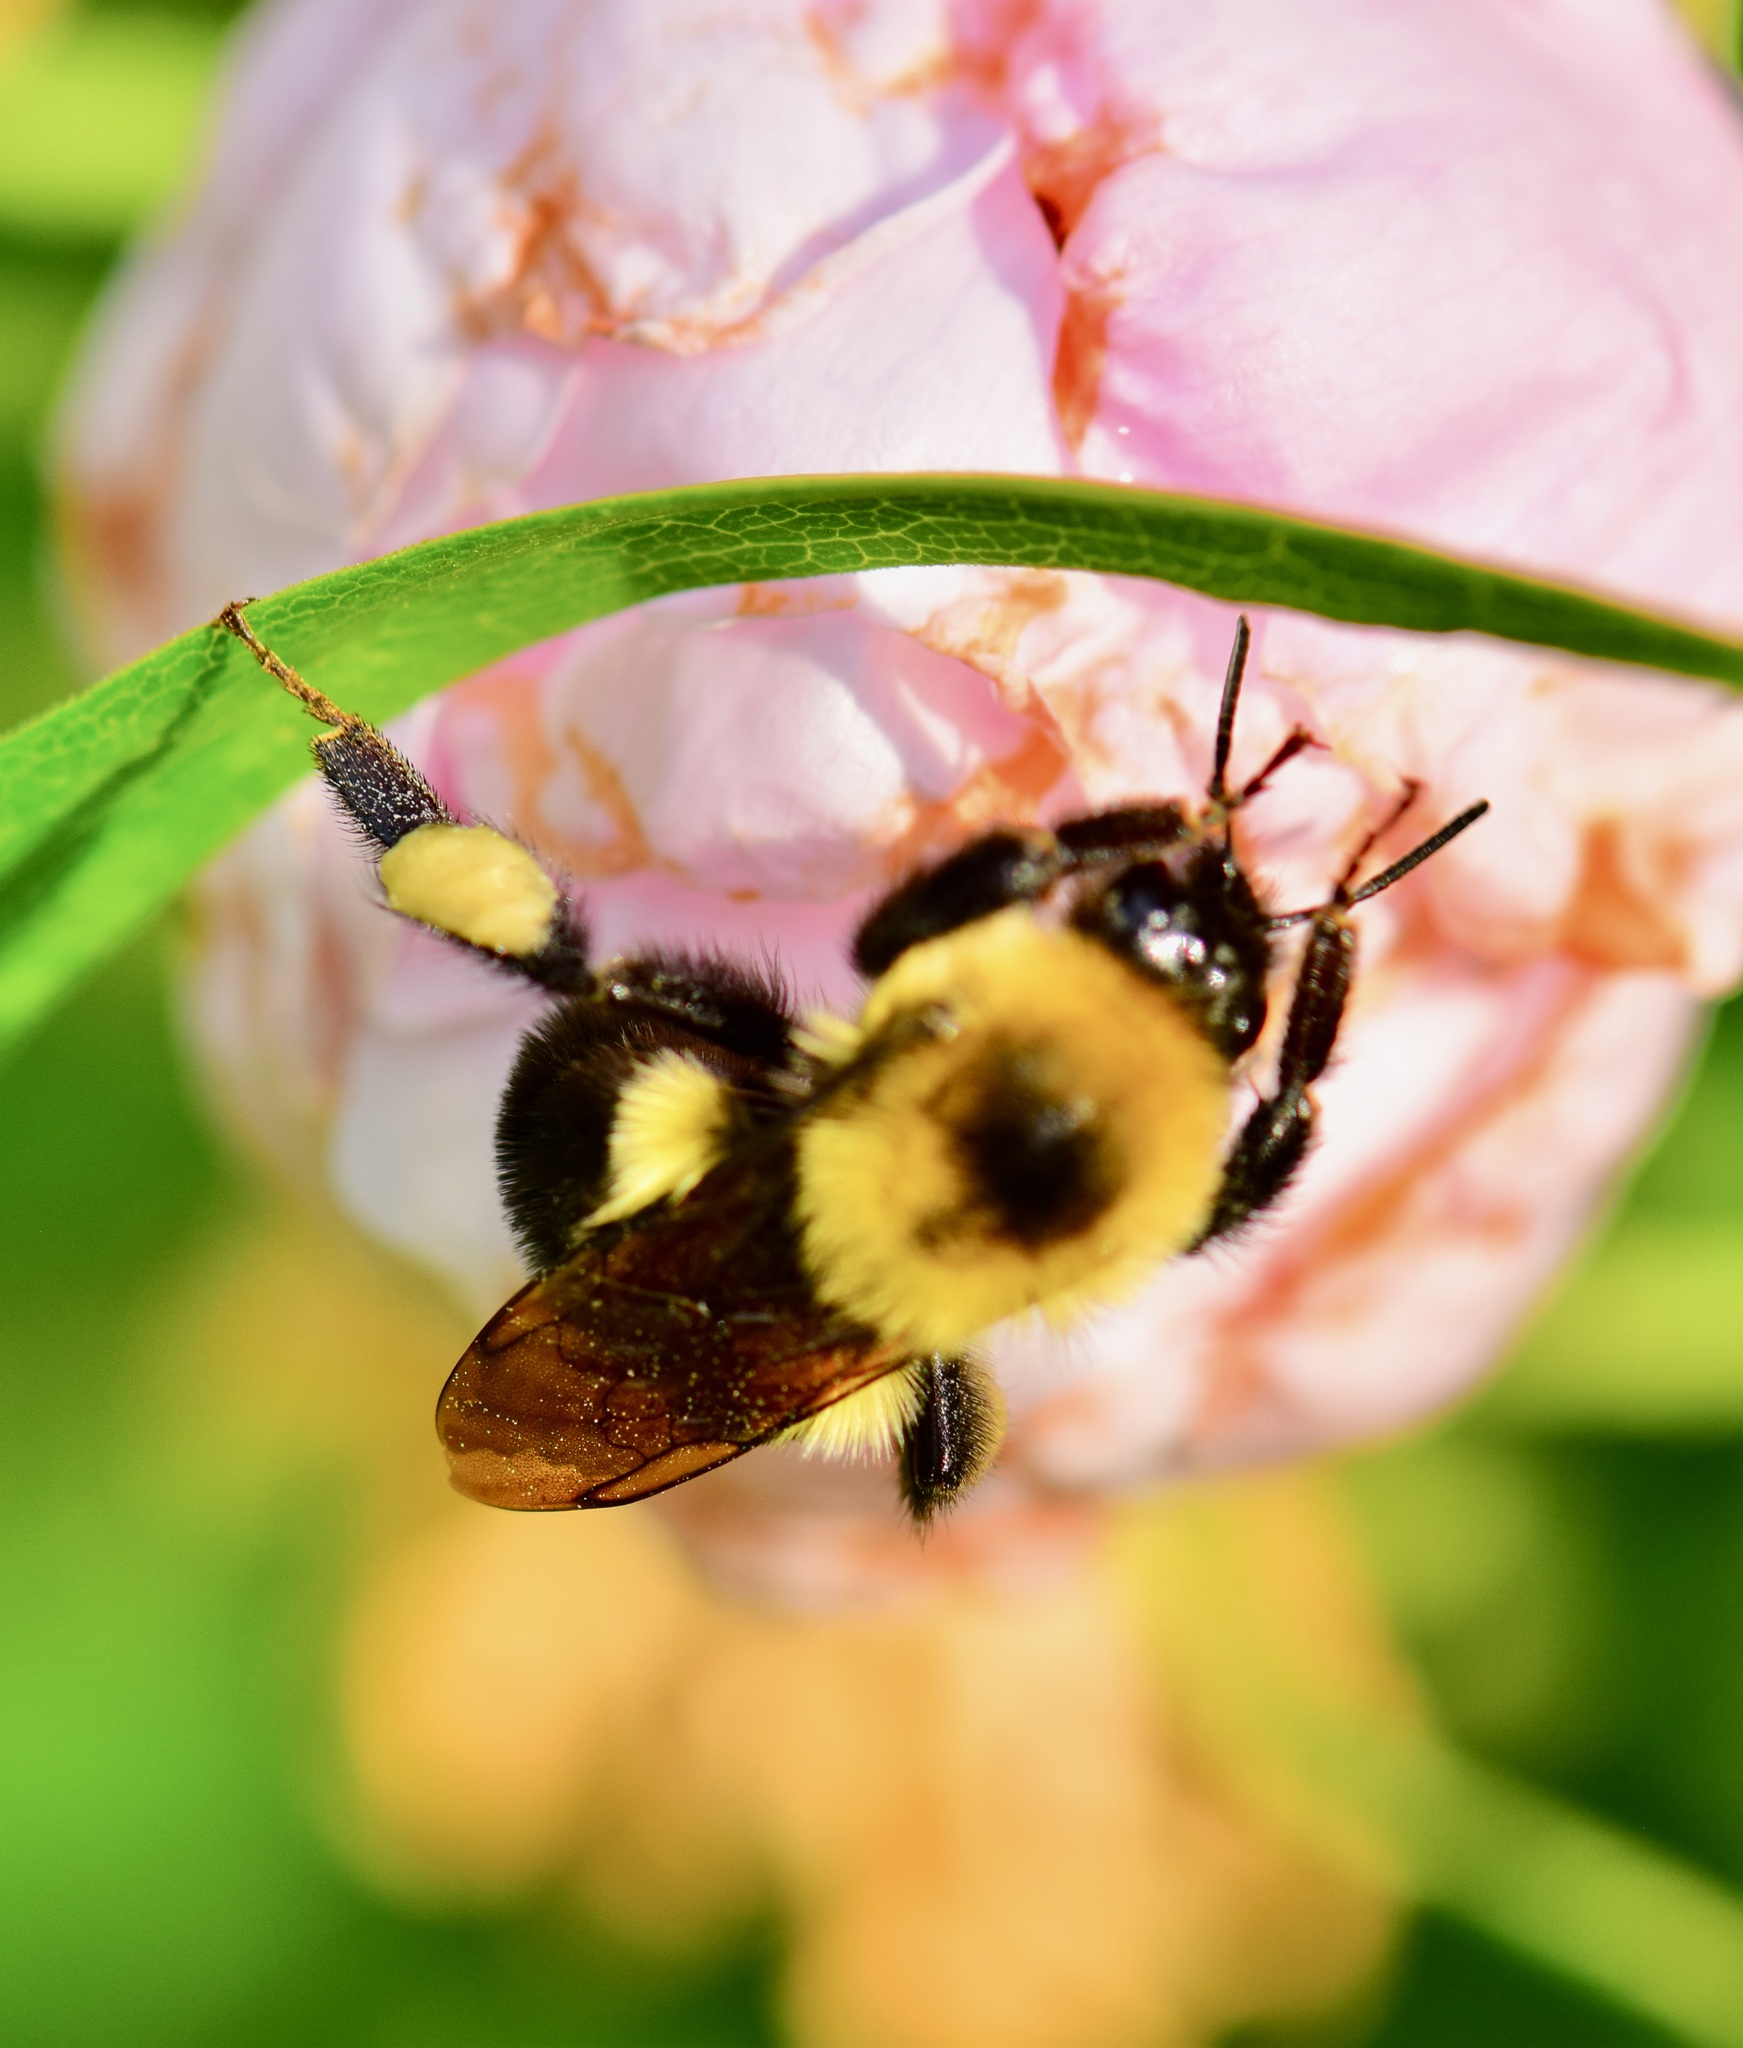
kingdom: Animalia
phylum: Arthropoda
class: Insecta
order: Hymenoptera
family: Apidae
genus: Bombus
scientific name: Bombus bimaculatus
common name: Two-spotted bumble bee
